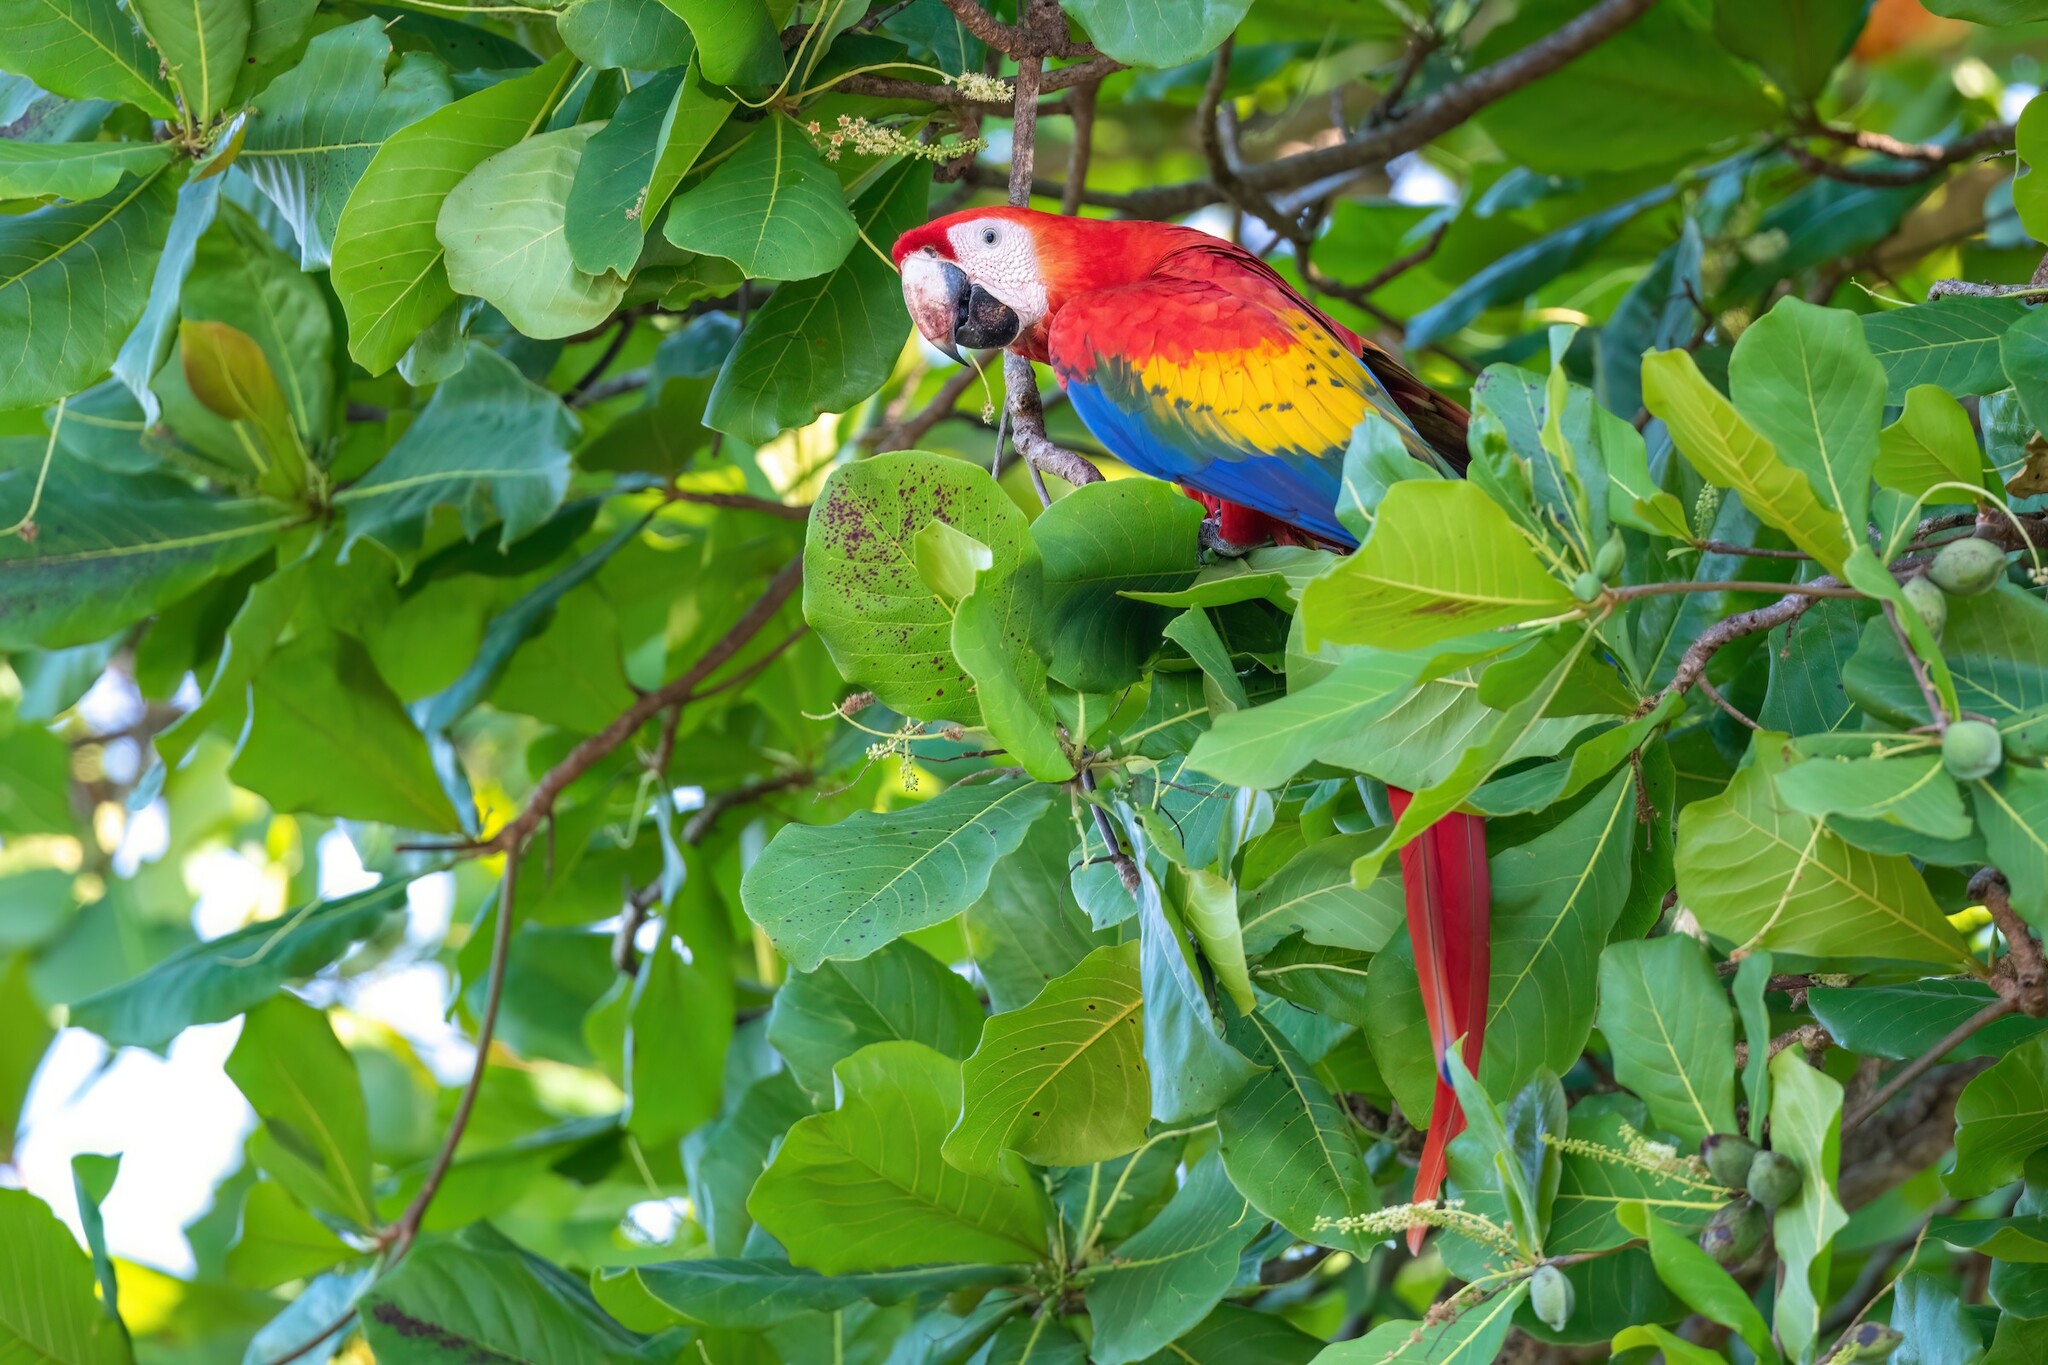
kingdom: Animalia
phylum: Chordata
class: Aves
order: Psittaciformes
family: Psittacidae
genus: Ara
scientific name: Ara macao
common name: Scarlet macaw
